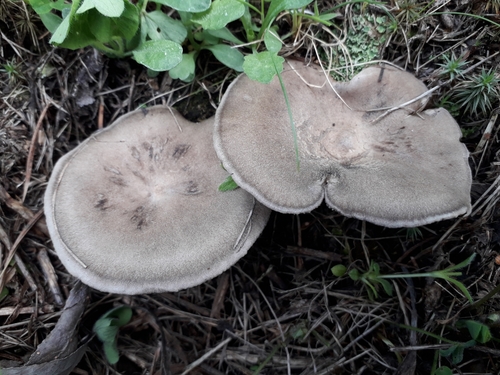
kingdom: Fungi
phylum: Basidiomycota
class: Agaricomycetes
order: Agaricales
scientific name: Agaricales
